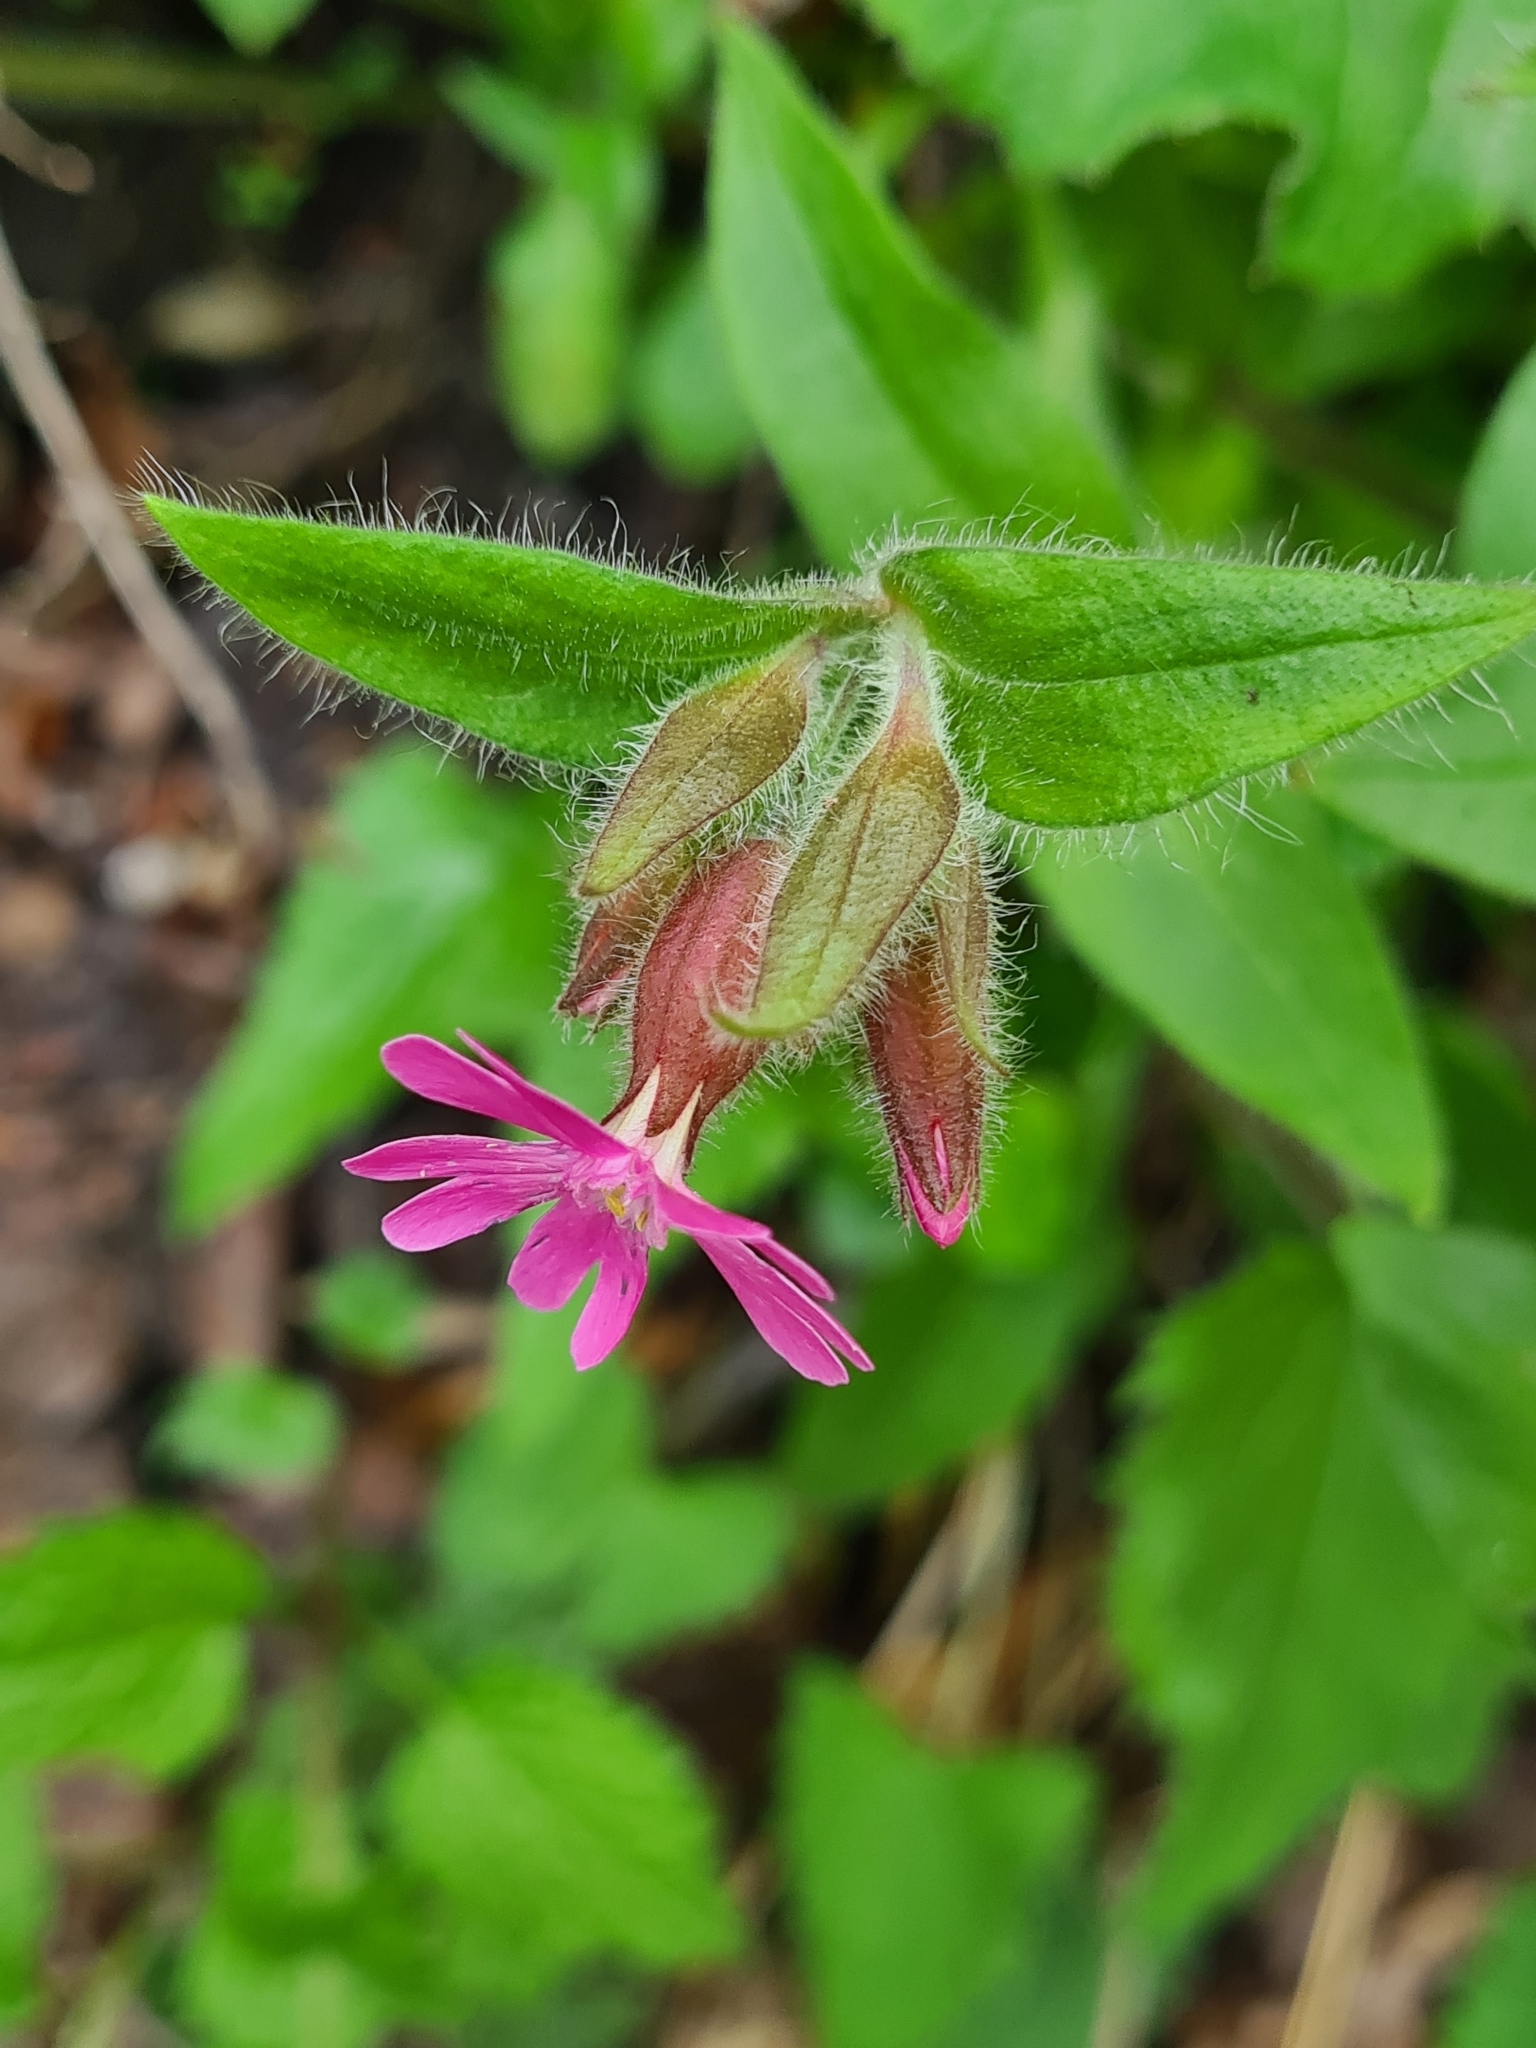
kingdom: Plantae
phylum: Tracheophyta
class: Magnoliopsida
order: Caryophyllales
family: Caryophyllaceae
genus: Silene
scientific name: Silene dioica
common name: Red campion
